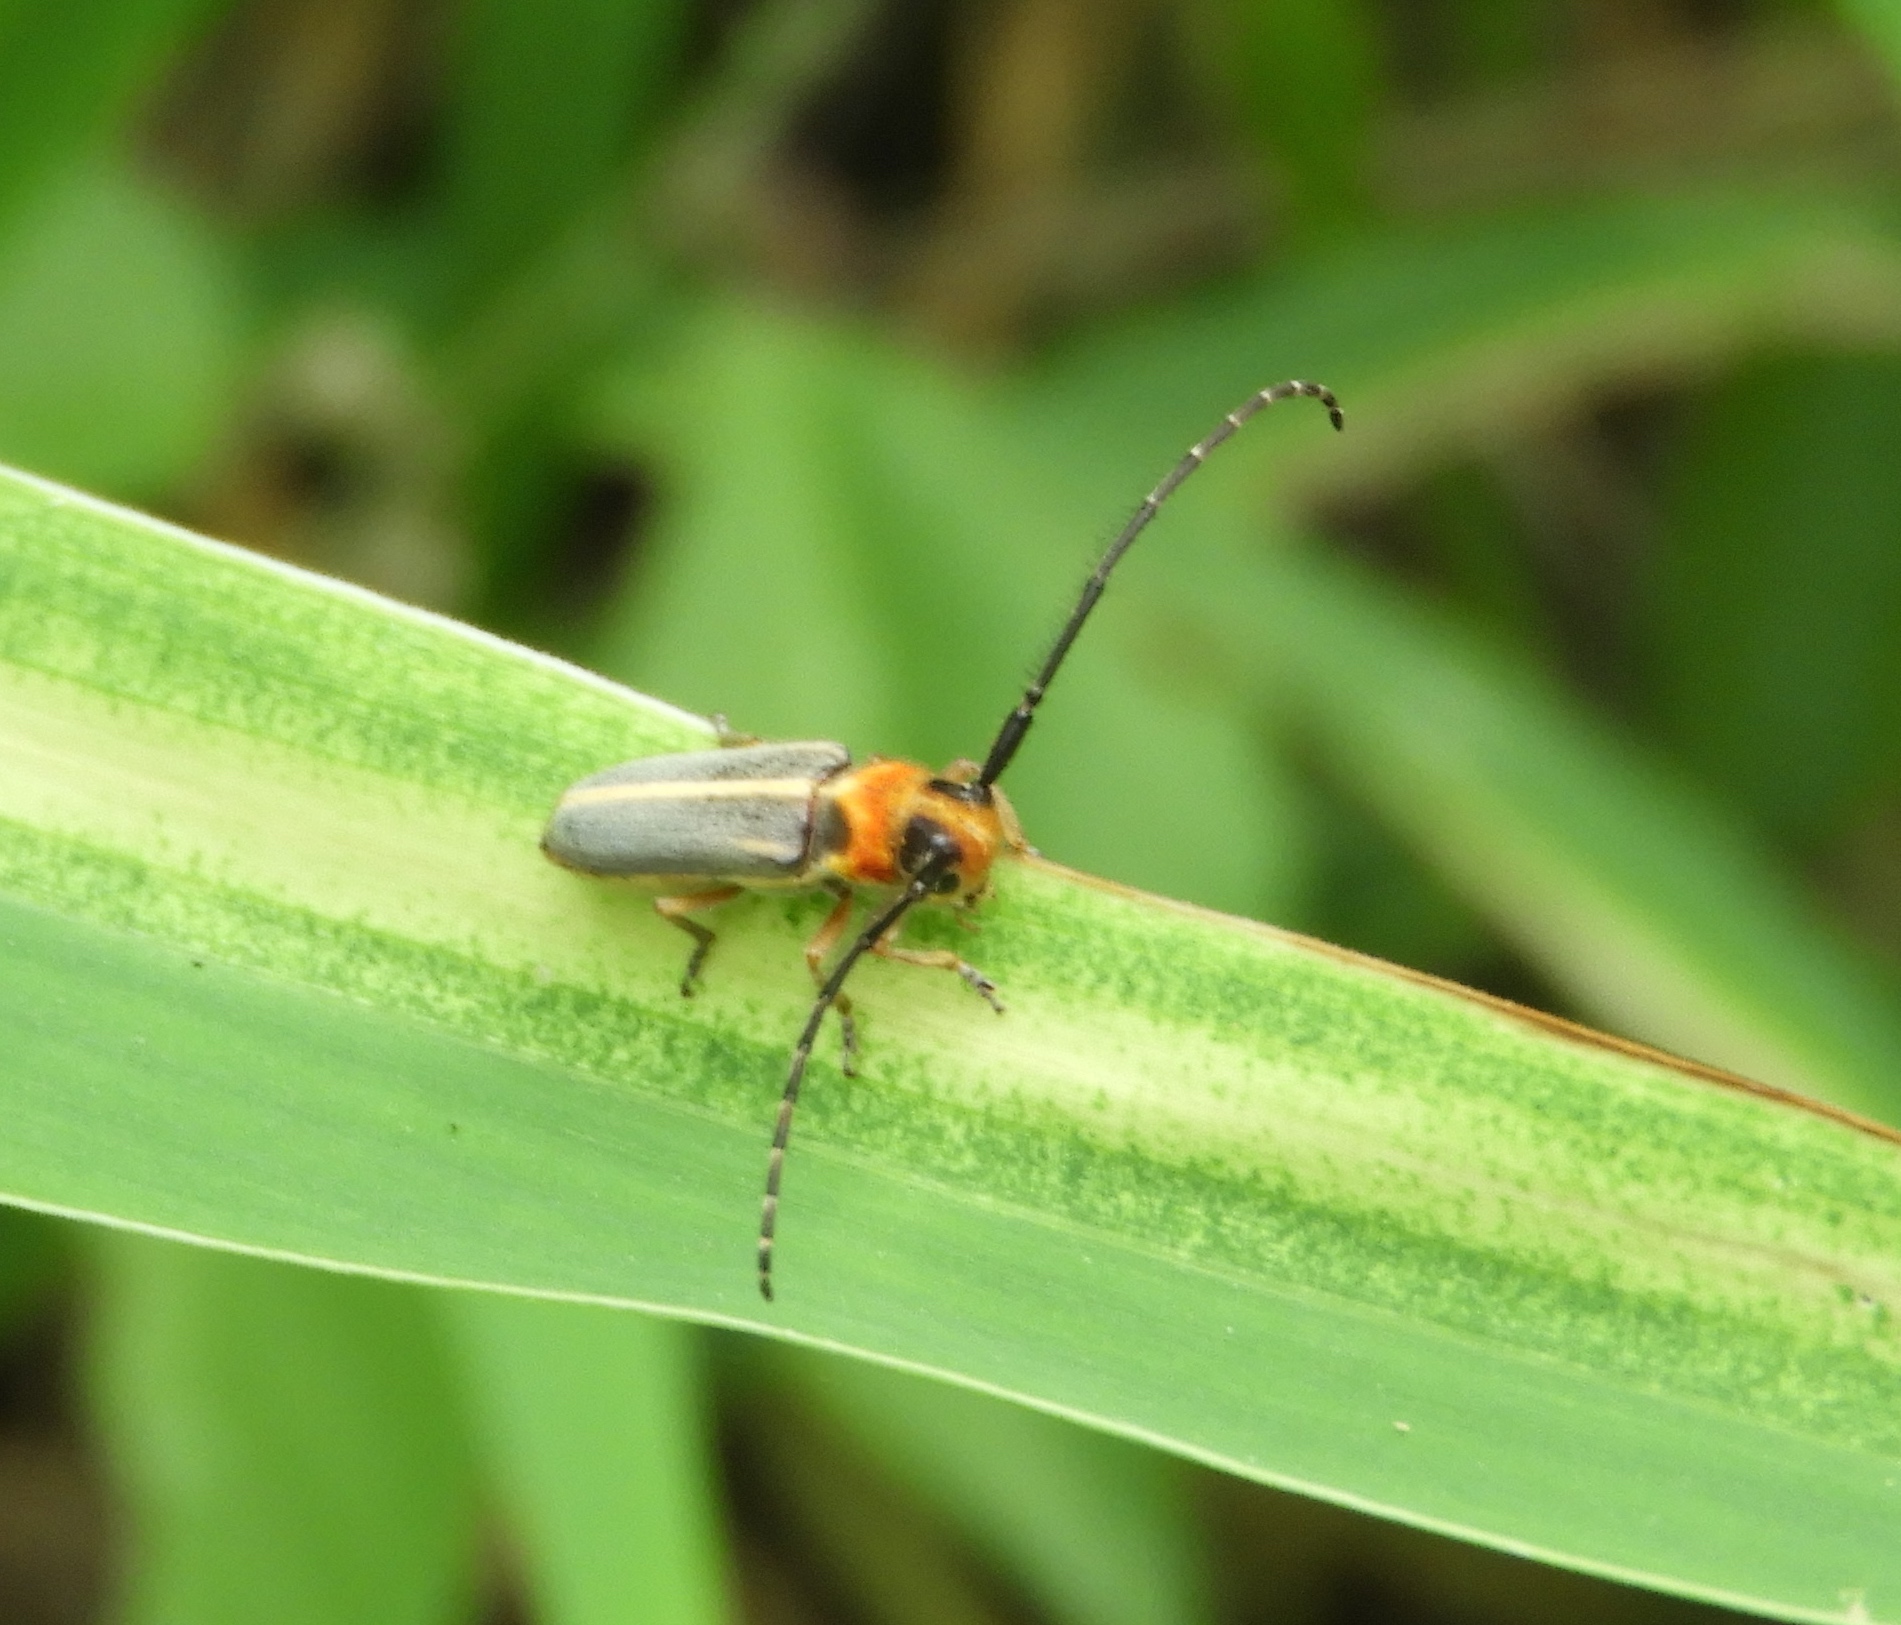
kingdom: Animalia
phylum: Arthropoda
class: Insecta
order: Coleoptera
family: Cerambycidae
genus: Essostrutha
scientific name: Essostrutha binotata
